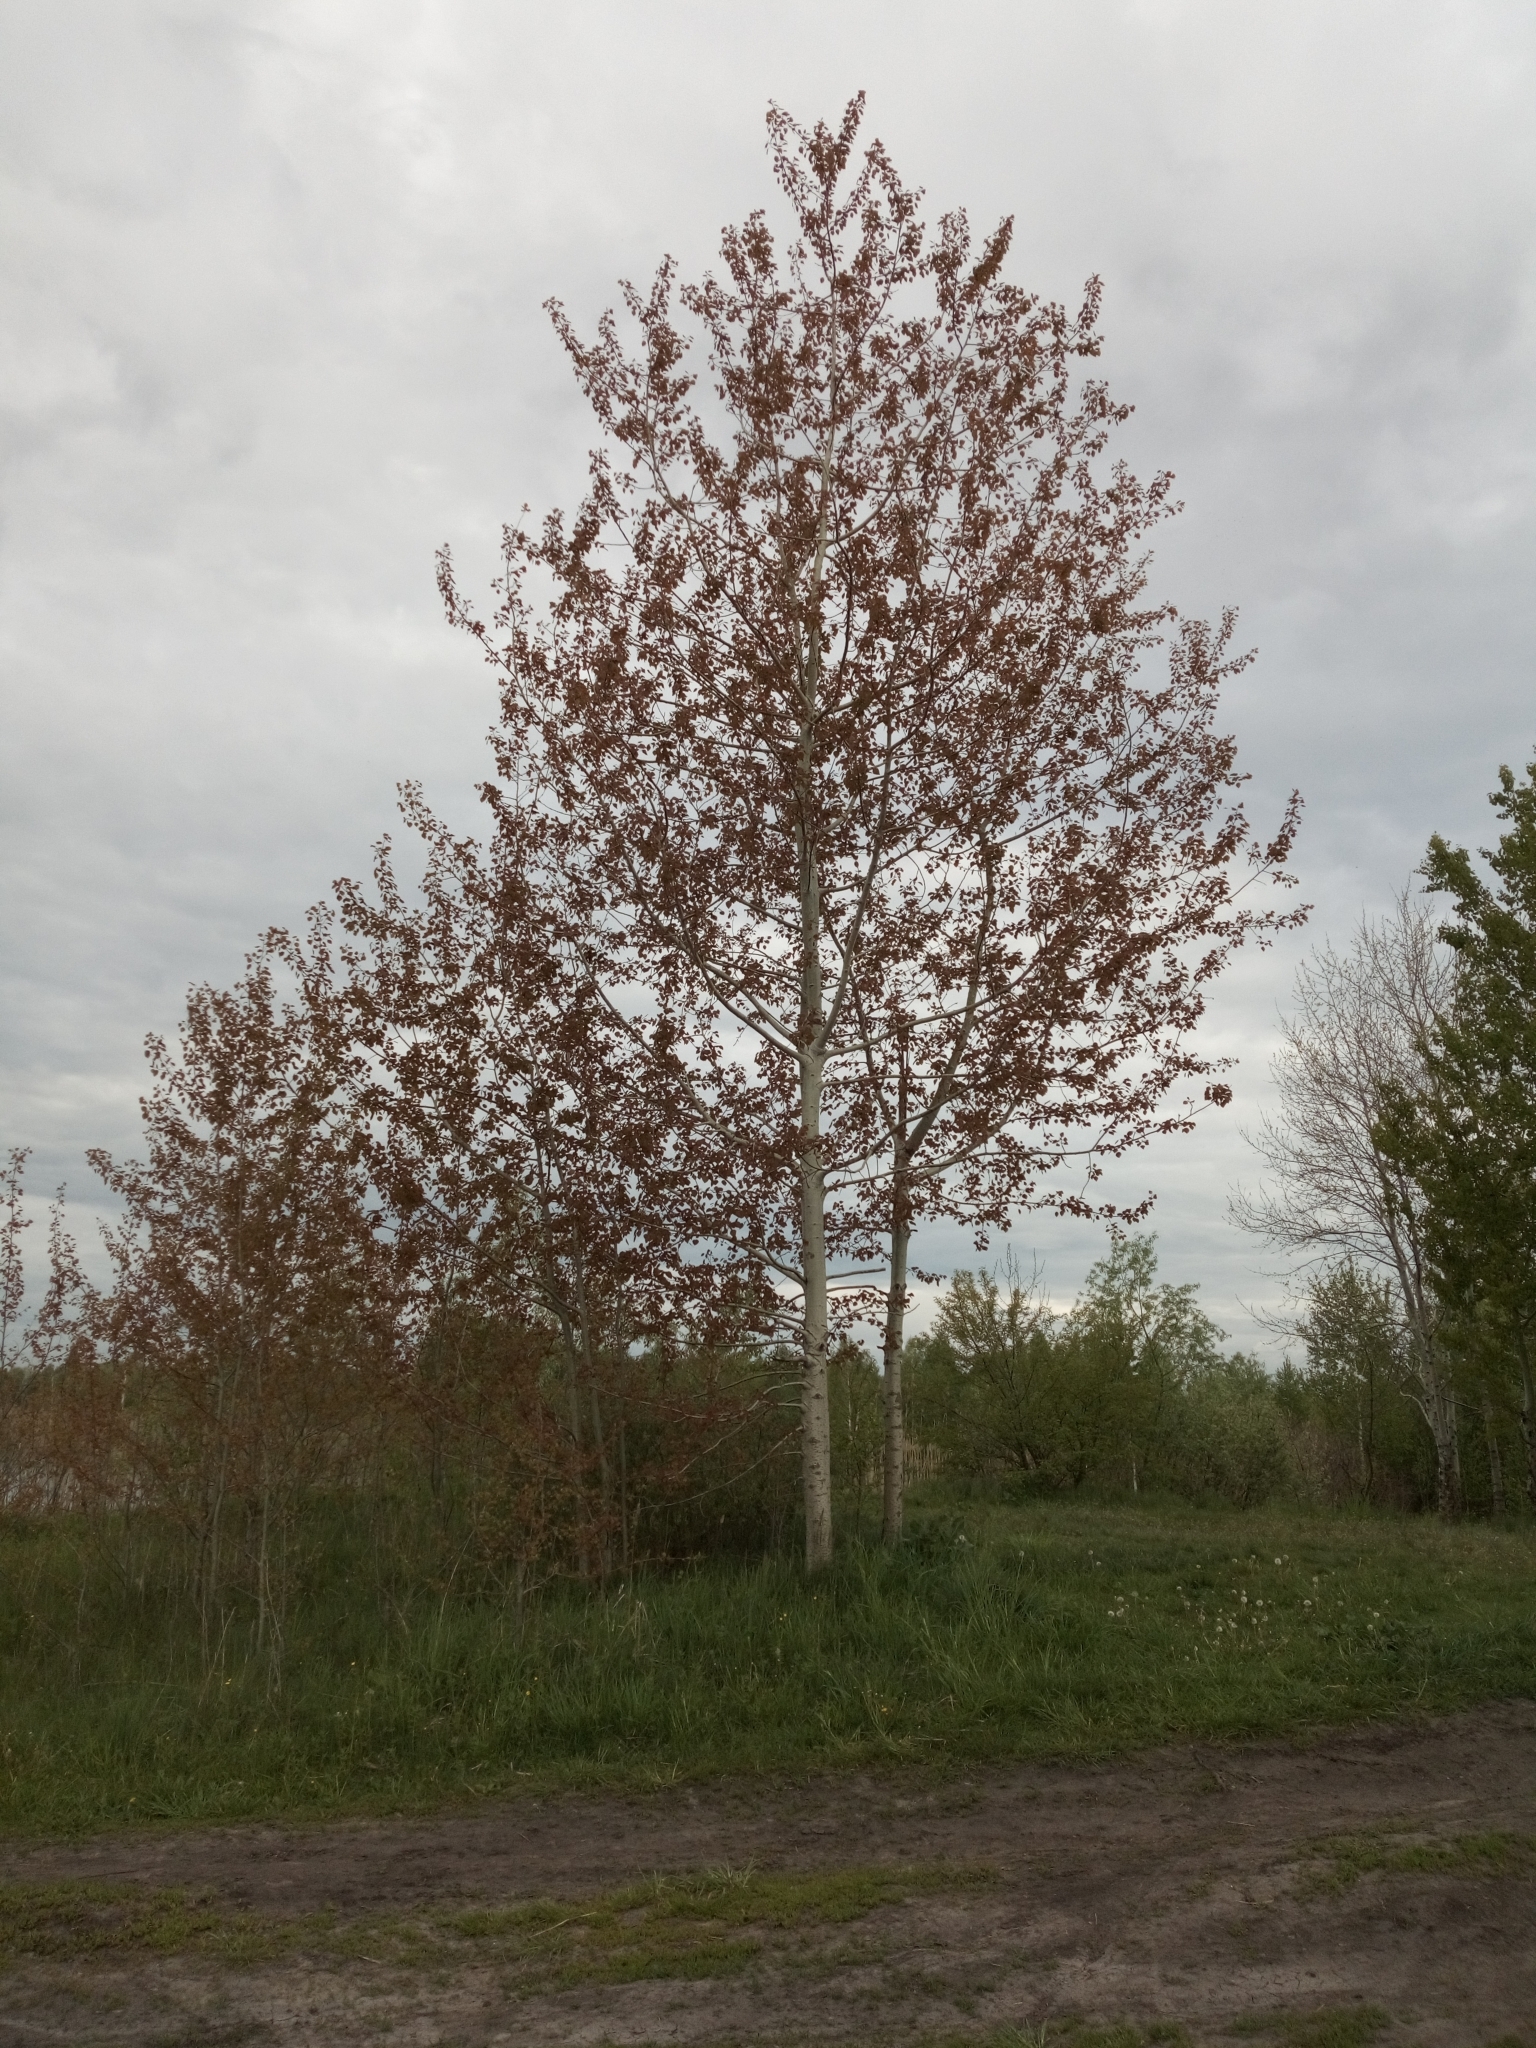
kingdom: Plantae
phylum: Tracheophyta
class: Magnoliopsida
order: Malpighiales
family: Salicaceae
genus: Populus
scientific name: Populus tremula
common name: European aspen
